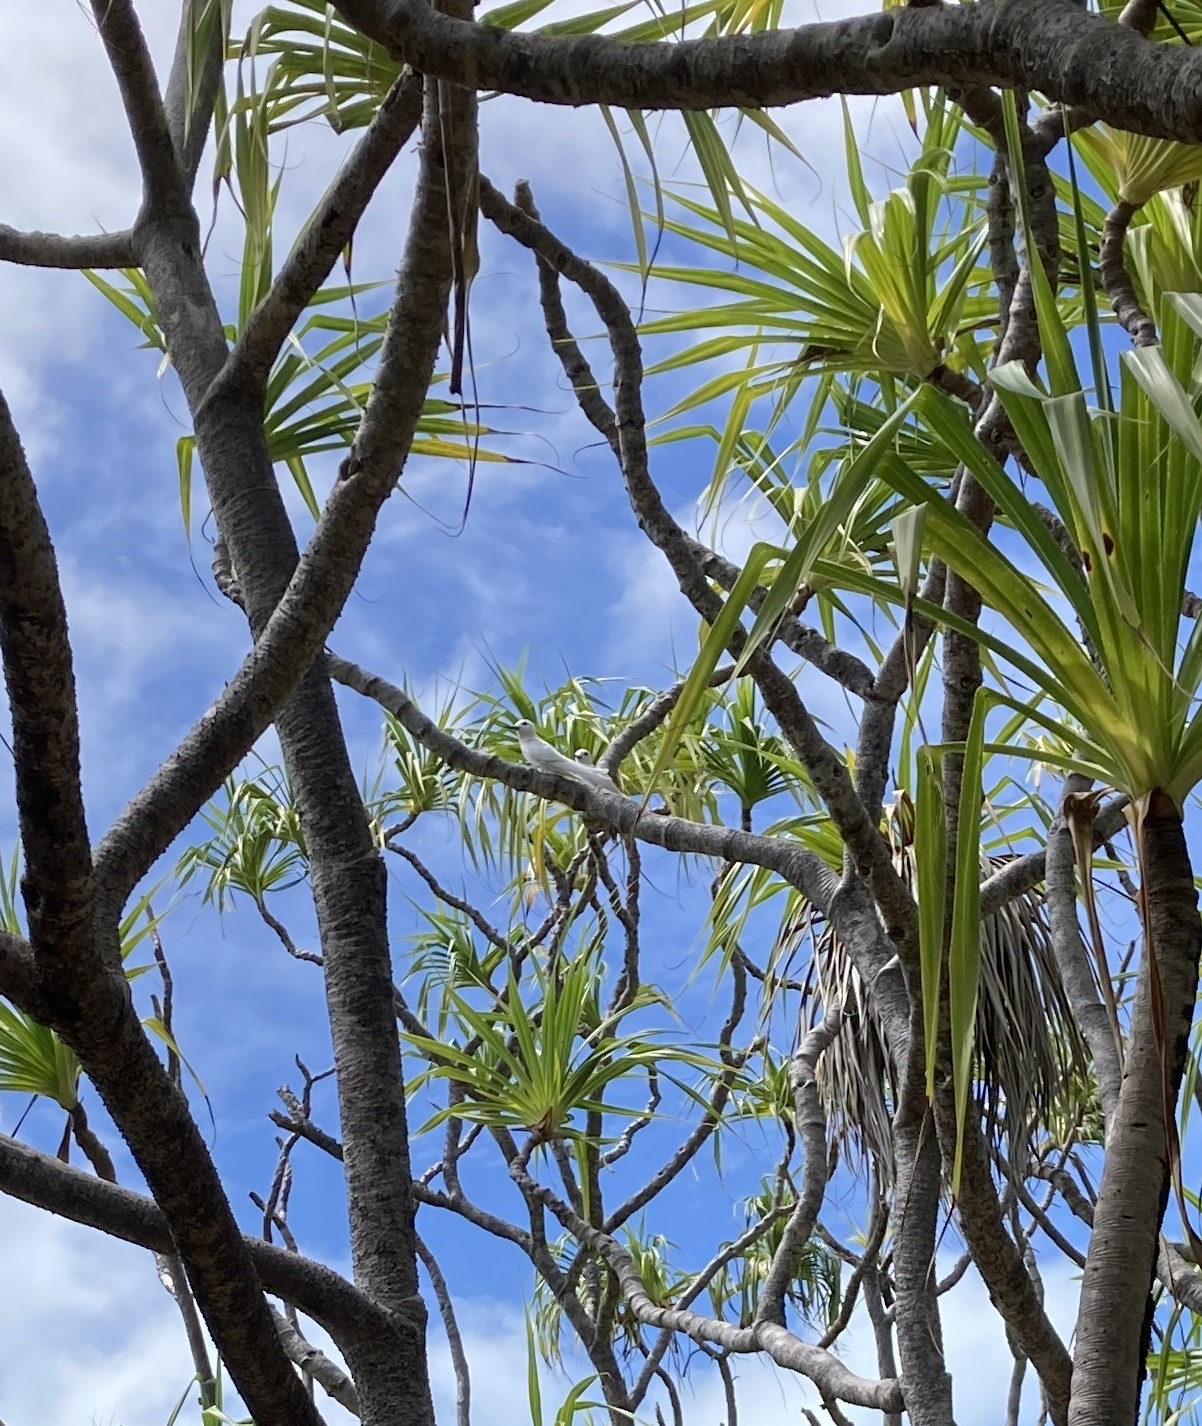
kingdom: Animalia
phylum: Chordata
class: Aves
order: Charadriiformes
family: Laridae
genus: Gygis
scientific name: Gygis alba
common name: White tern
